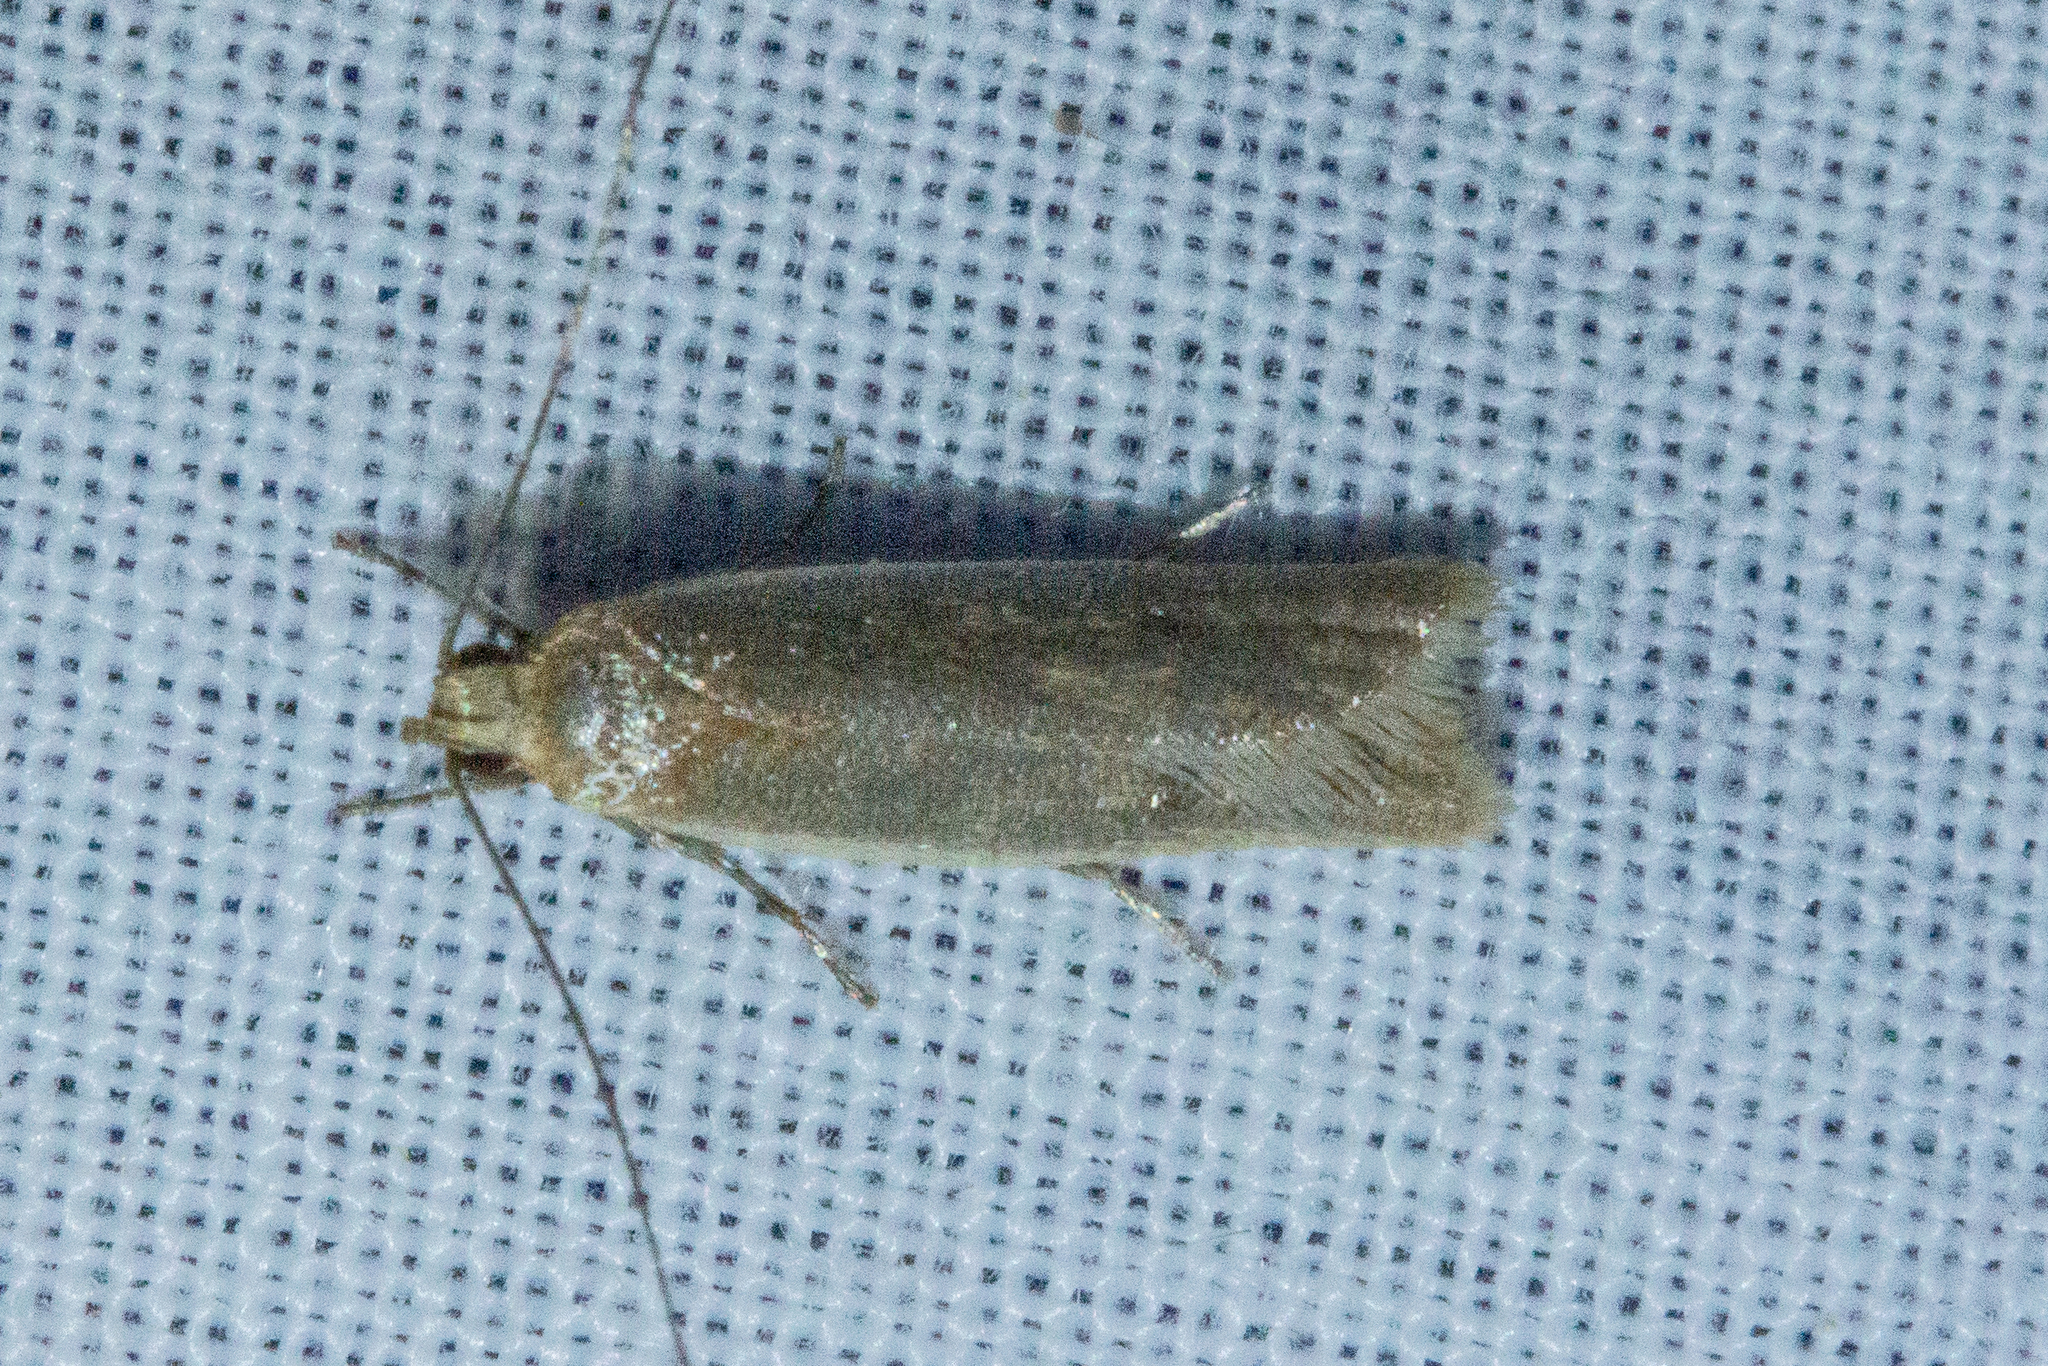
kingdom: Animalia
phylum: Arthropoda
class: Insecta
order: Lepidoptera
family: Oecophoridae
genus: Gymnobathra
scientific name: Gymnobathra parca
